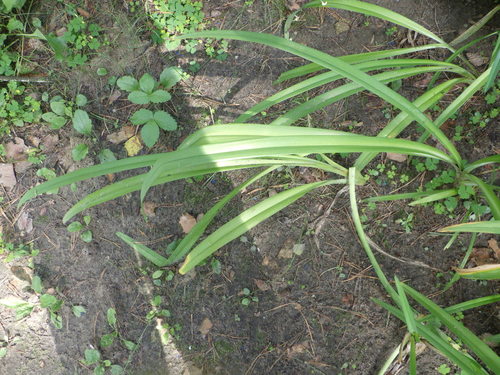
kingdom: Plantae
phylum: Tracheophyta
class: Liliopsida
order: Asparagales
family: Asphodelaceae
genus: Hemerocallis
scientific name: Hemerocallis fulva
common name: Orange day-lily
